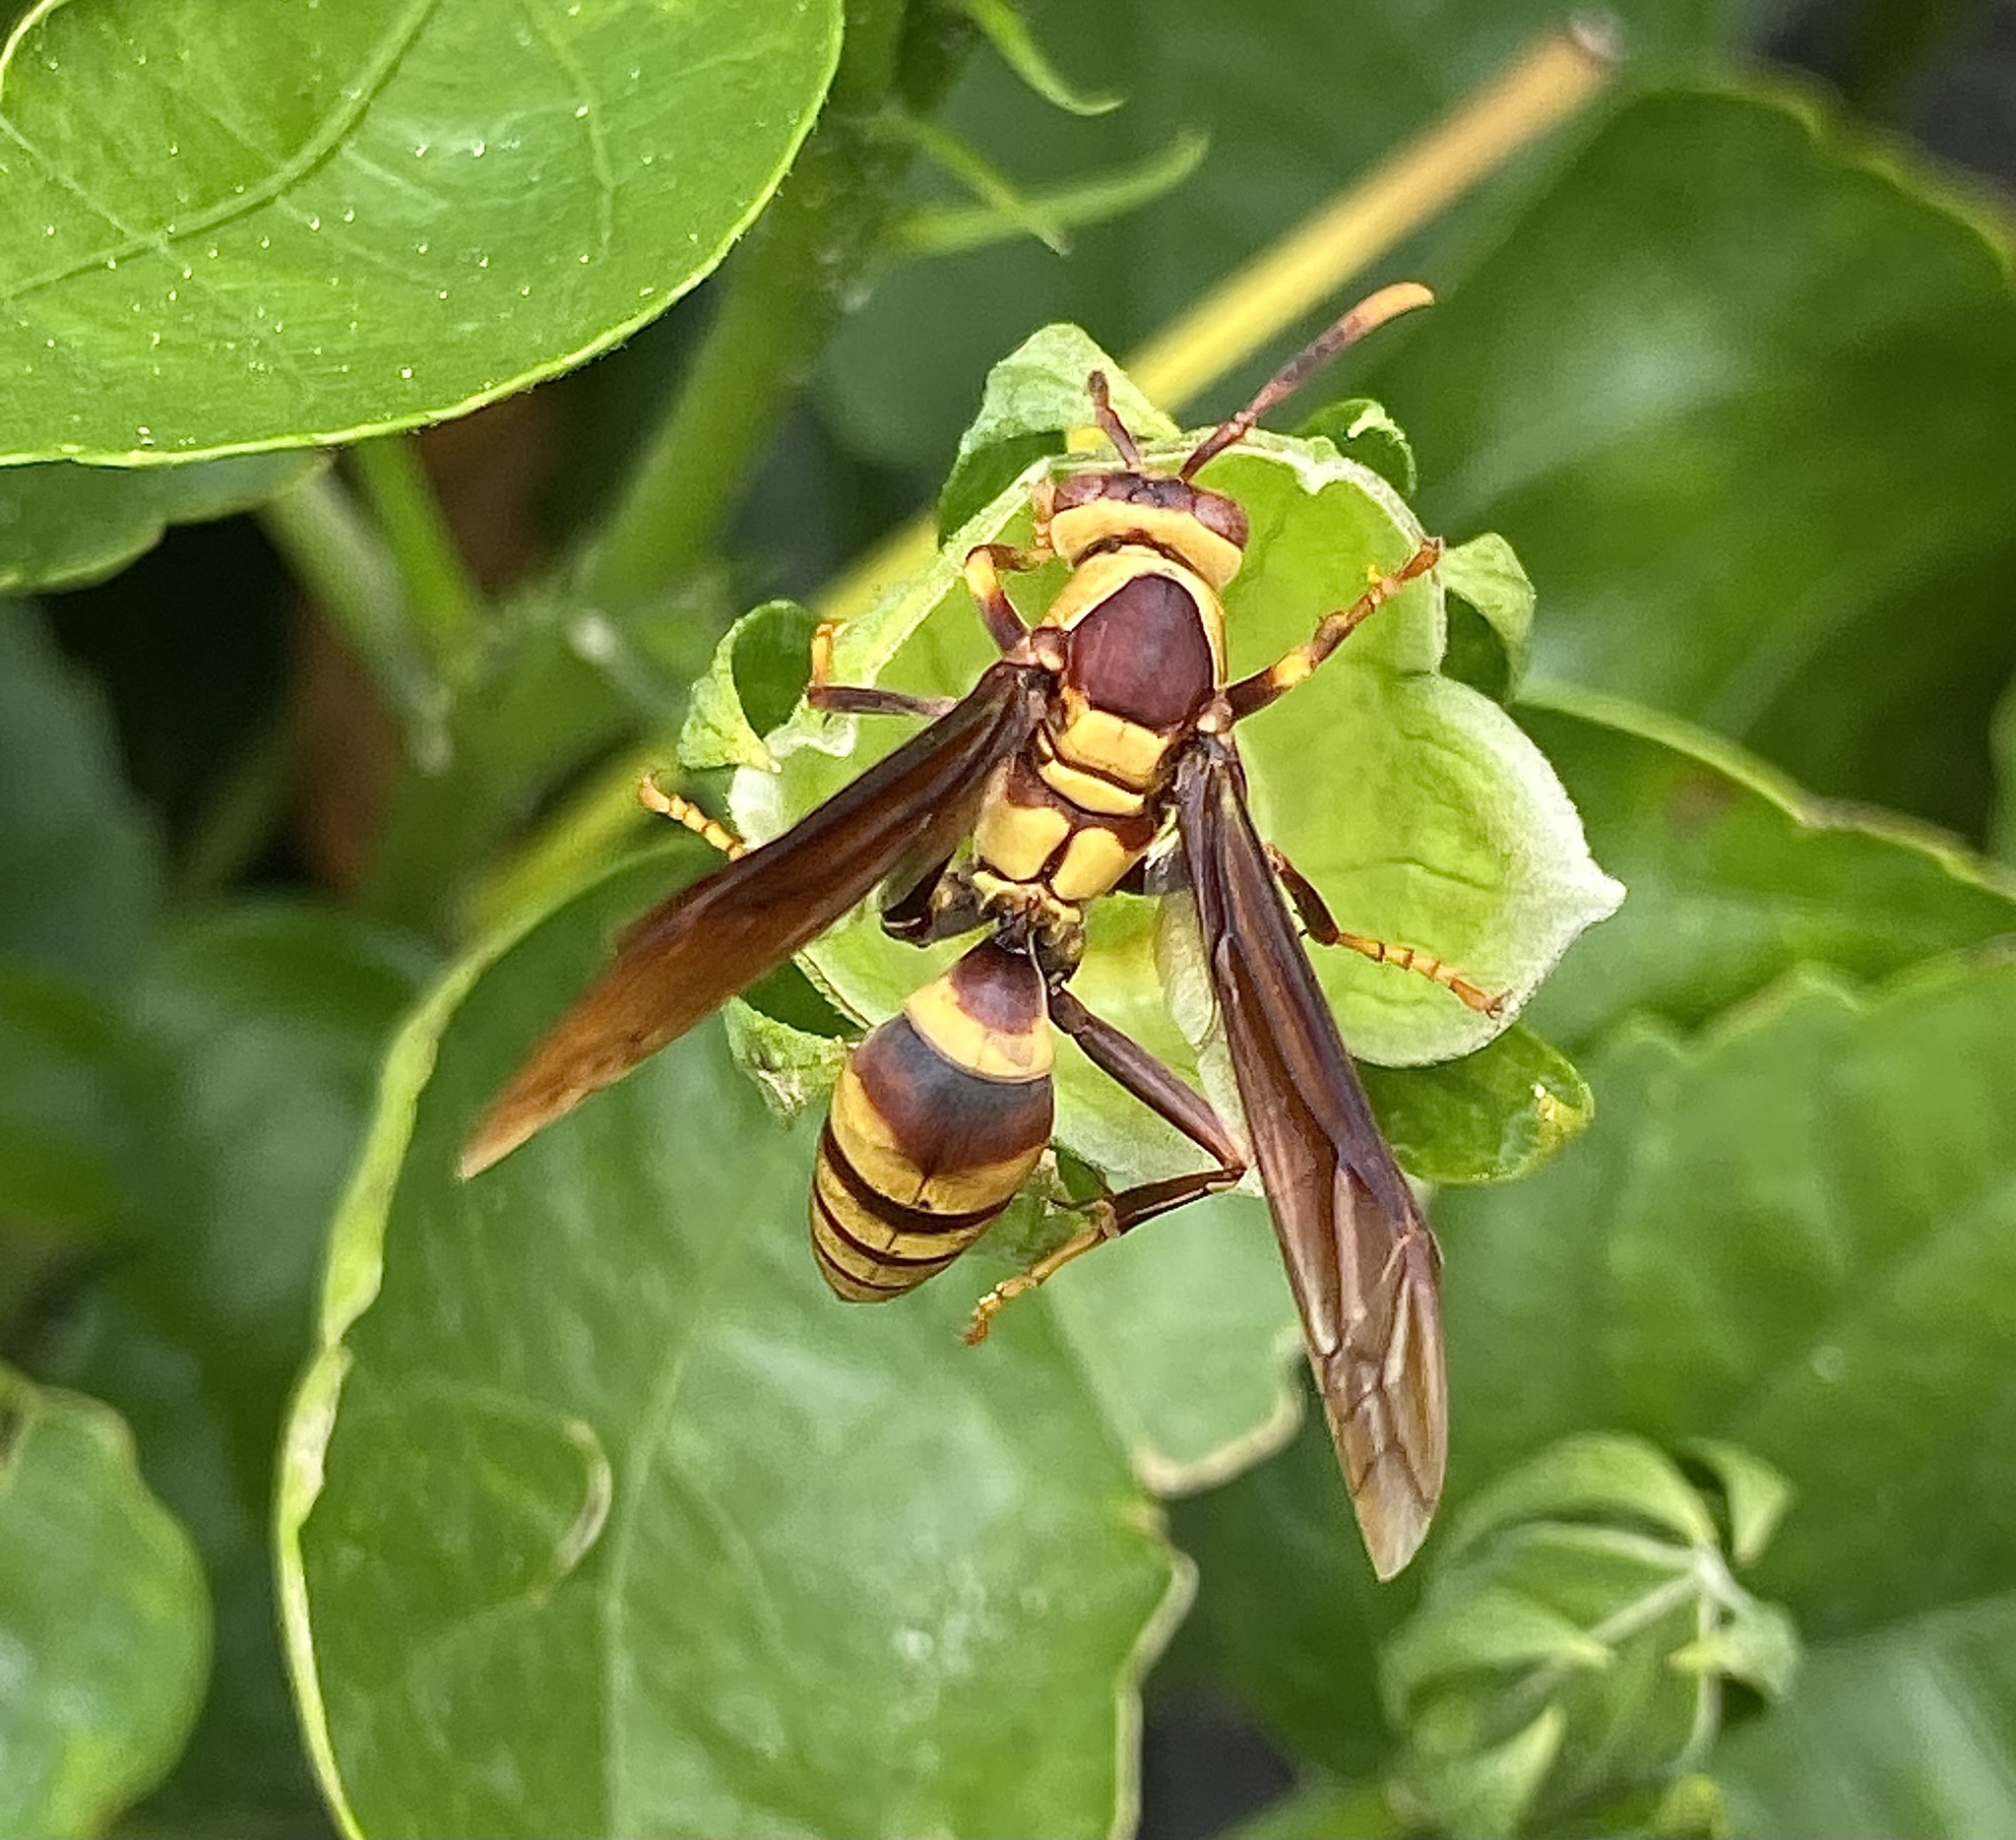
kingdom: Animalia
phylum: Arthropoda
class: Insecta
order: Hymenoptera
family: Eumenidae
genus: Polistes
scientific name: Polistes major
